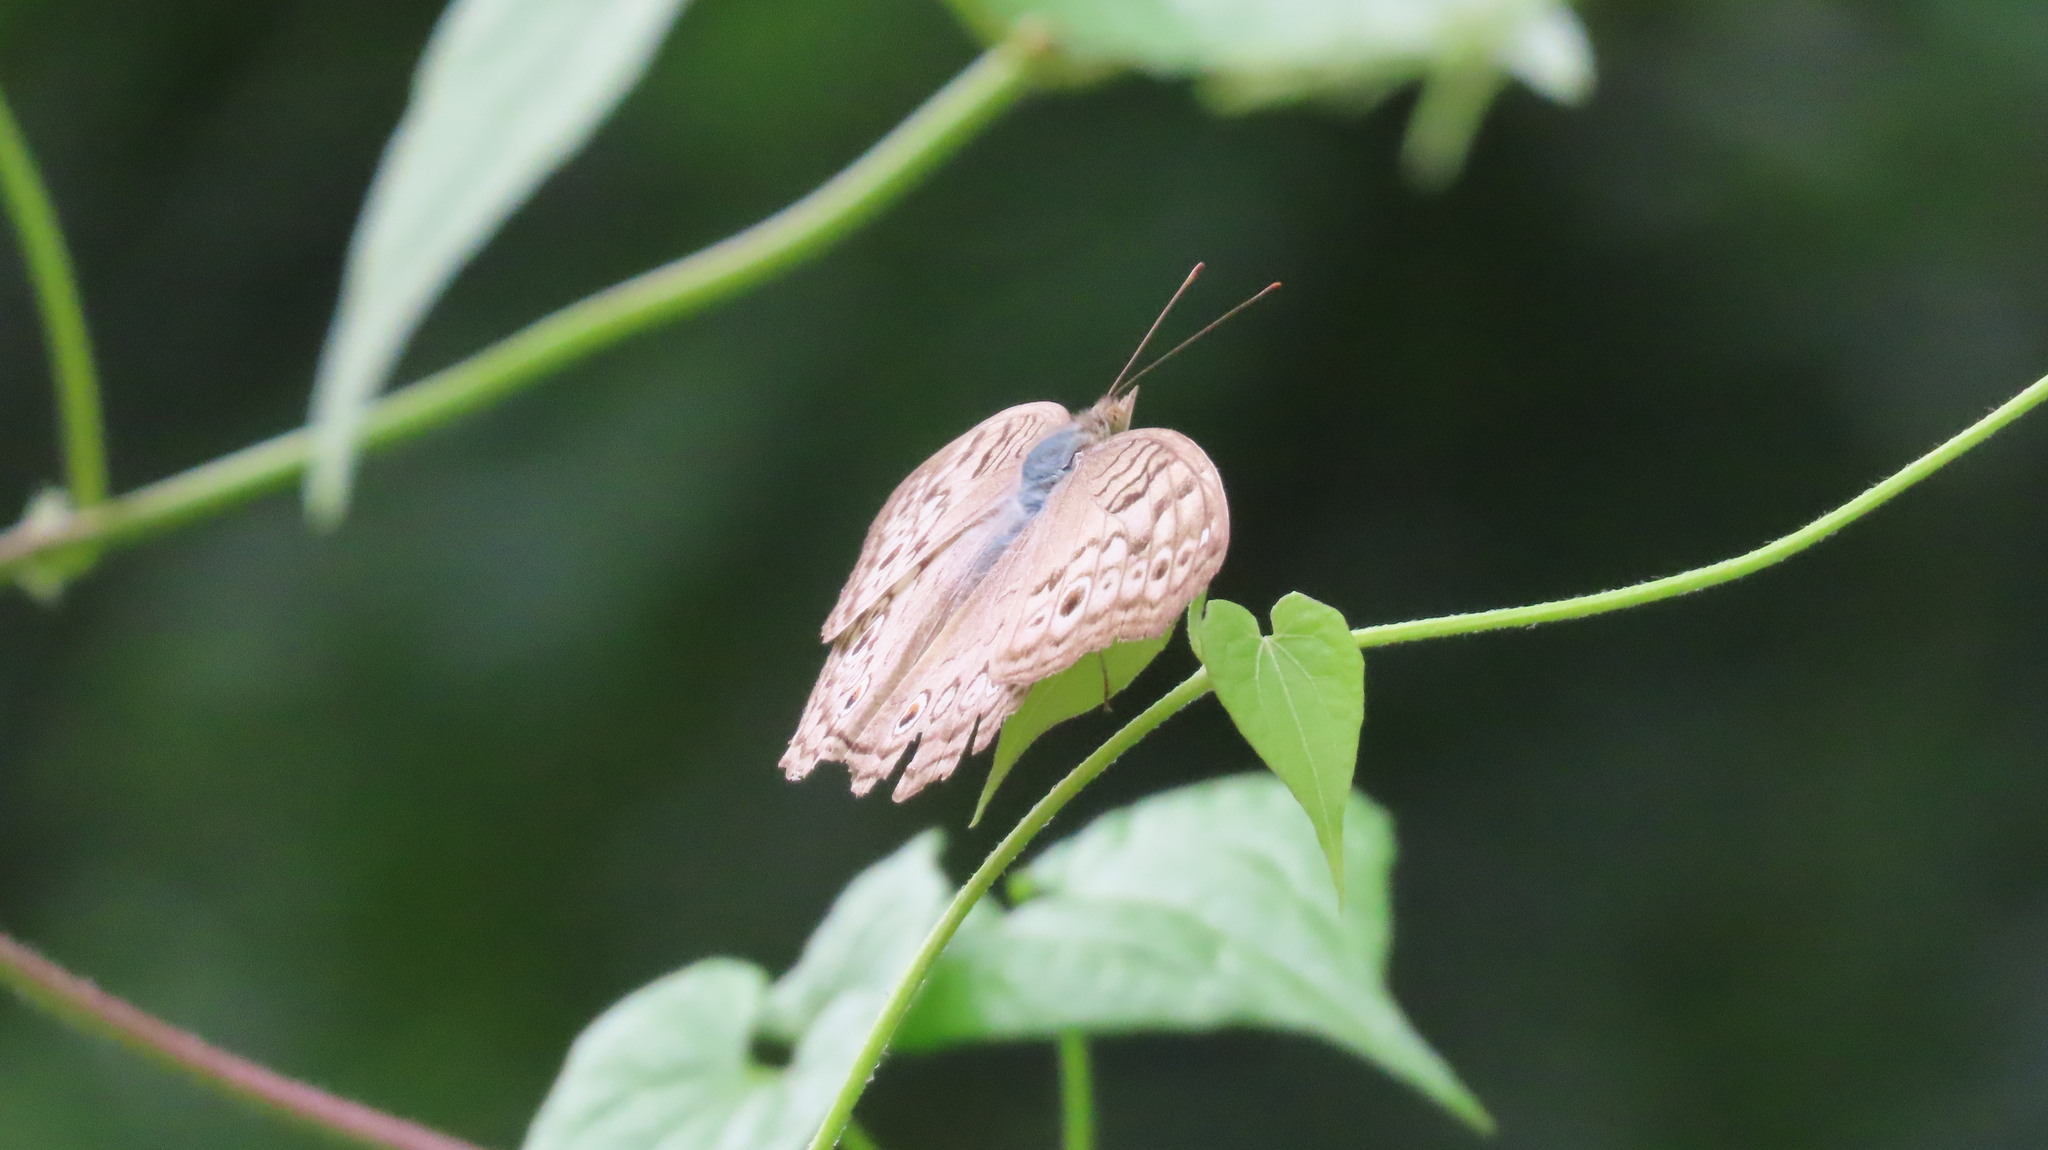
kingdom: Animalia
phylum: Arthropoda
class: Insecta
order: Lepidoptera
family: Nymphalidae
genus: Junonia
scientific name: Junonia atlites
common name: Grey pansy
